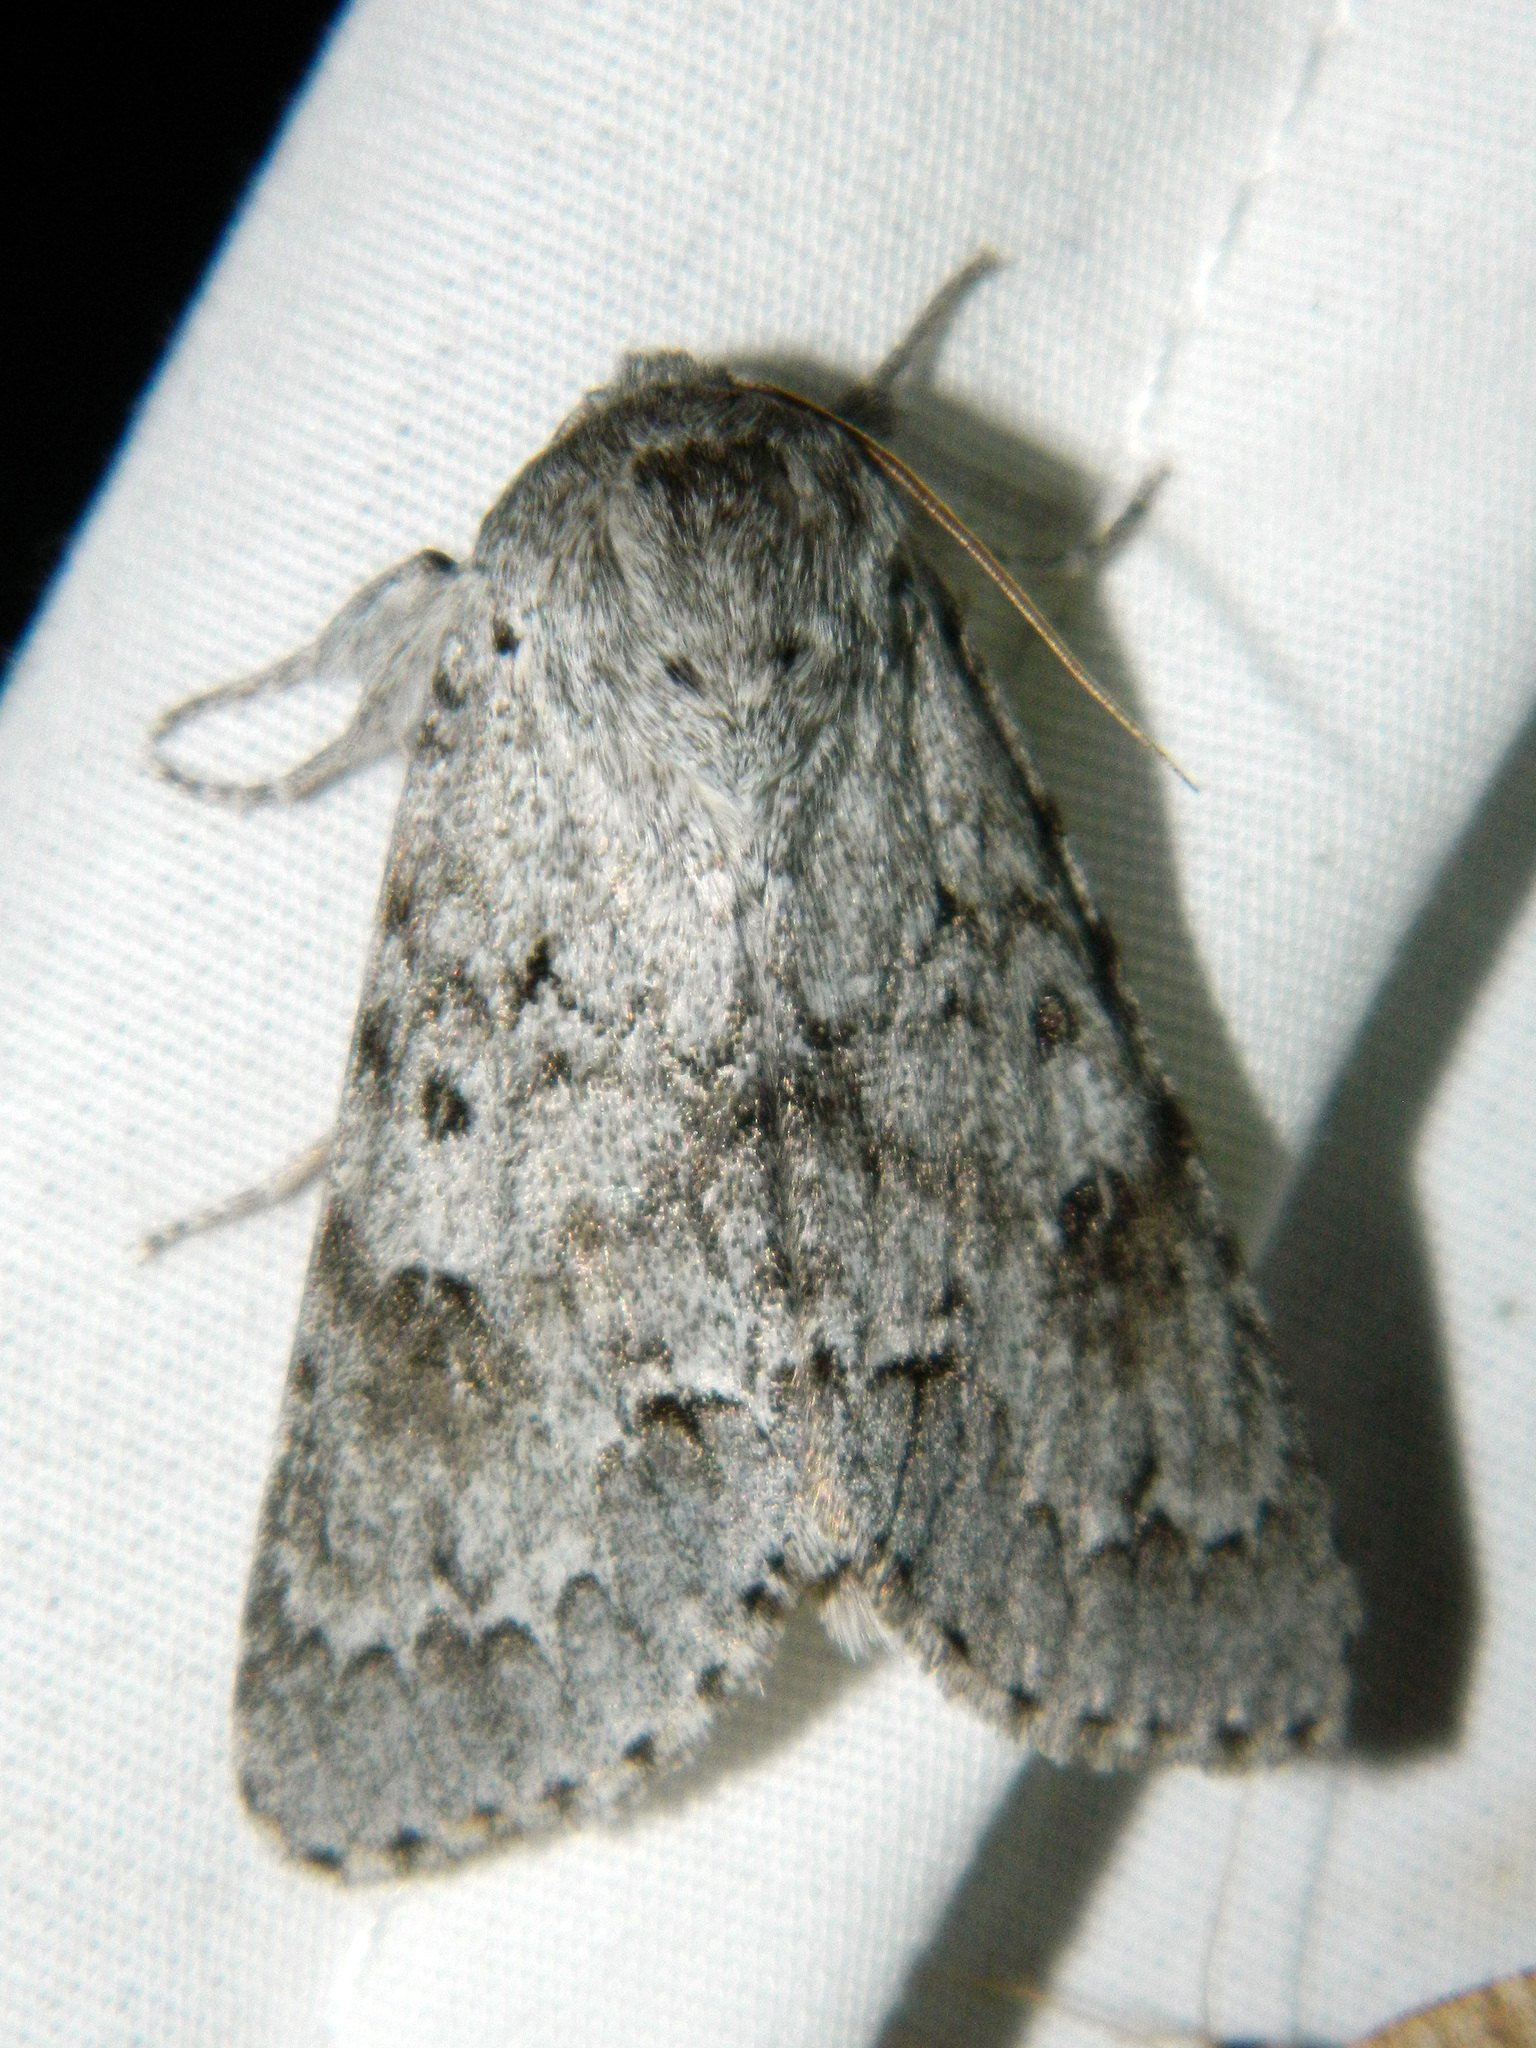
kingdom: Animalia
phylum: Arthropoda
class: Insecta
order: Lepidoptera
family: Noctuidae
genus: Acronicta
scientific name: Acronicta insita
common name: Large gray dagger
